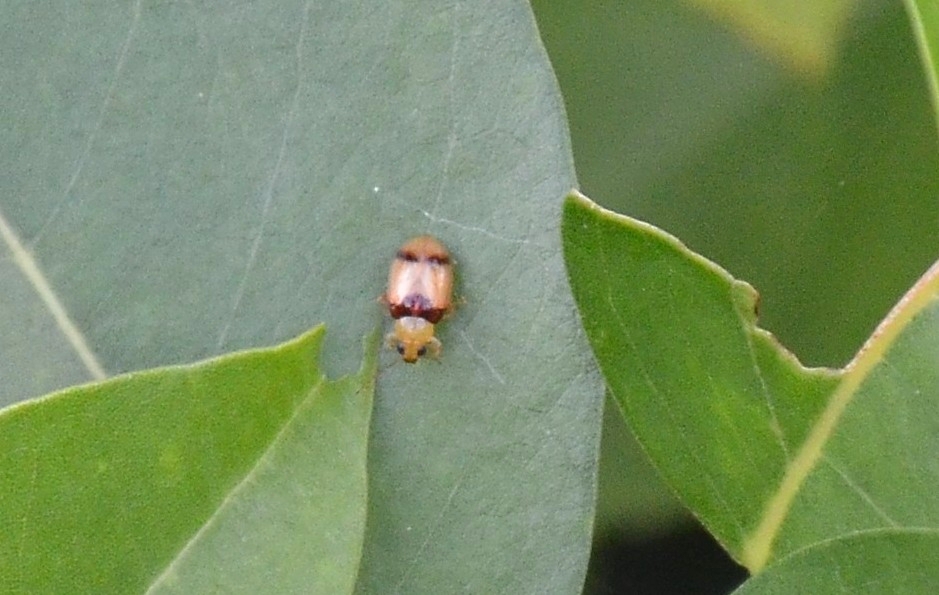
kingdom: Animalia
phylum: Arthropoda
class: Insecta
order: Coleoptera
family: Chrysomelidae
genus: Monolepta
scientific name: Monolepta
